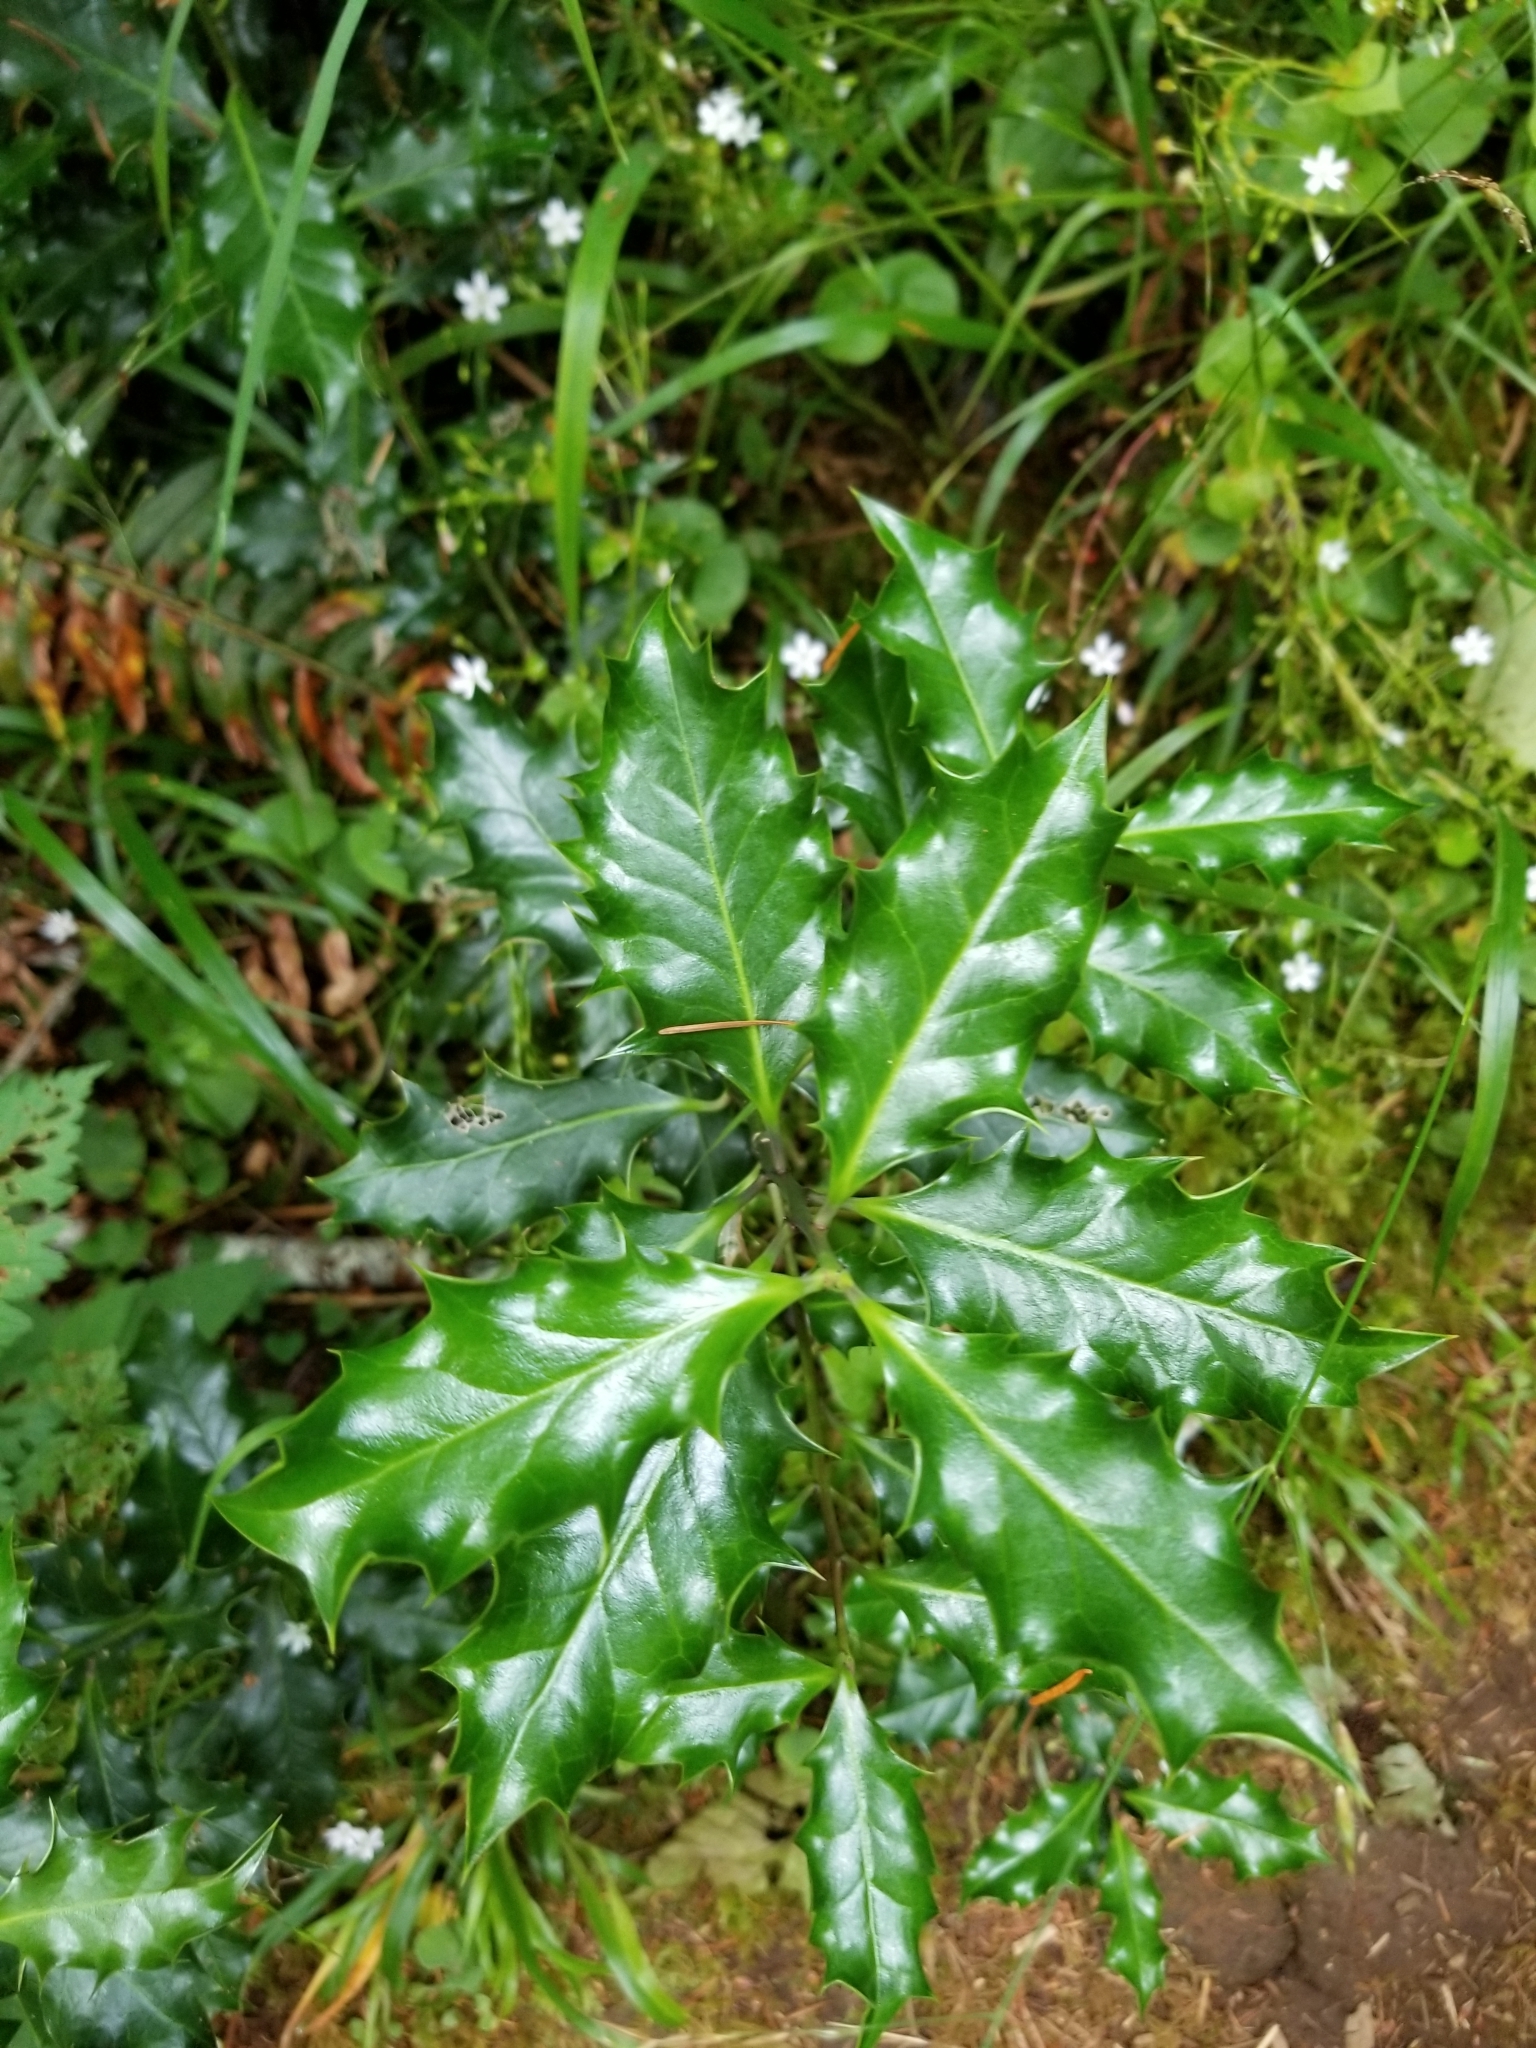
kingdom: Plantae
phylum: Tracheophyta
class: Magnoliopsida
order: Aquifoliales
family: Aquifoliaceae
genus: Ilex
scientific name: Ilex aquifolium
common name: English holly
